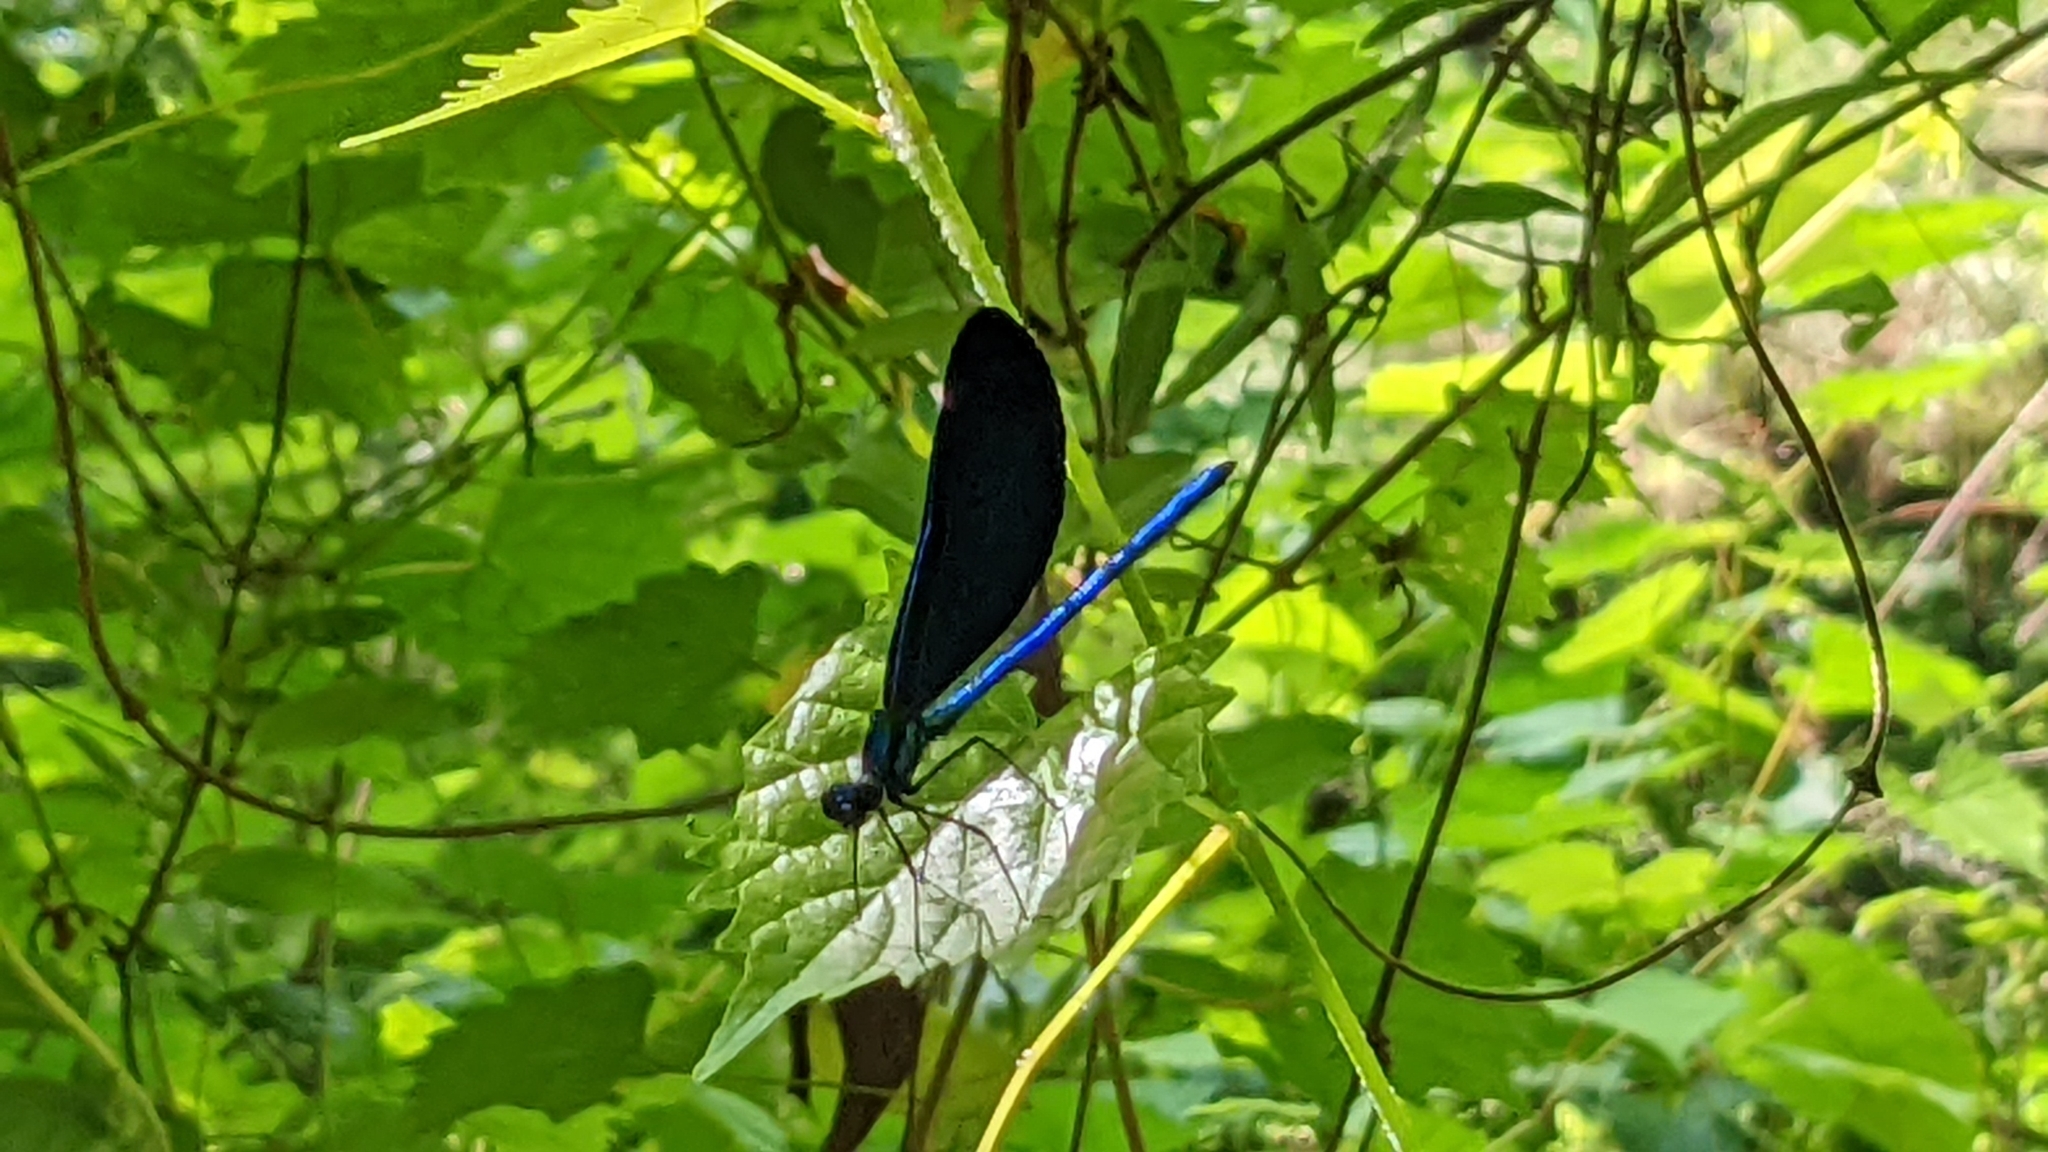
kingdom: Animalia
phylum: Arthropoda
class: Insecta
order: Odonata
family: Calopterygidae
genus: Calopteryx
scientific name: Calopteryx maculata
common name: Ebony jewelwing
